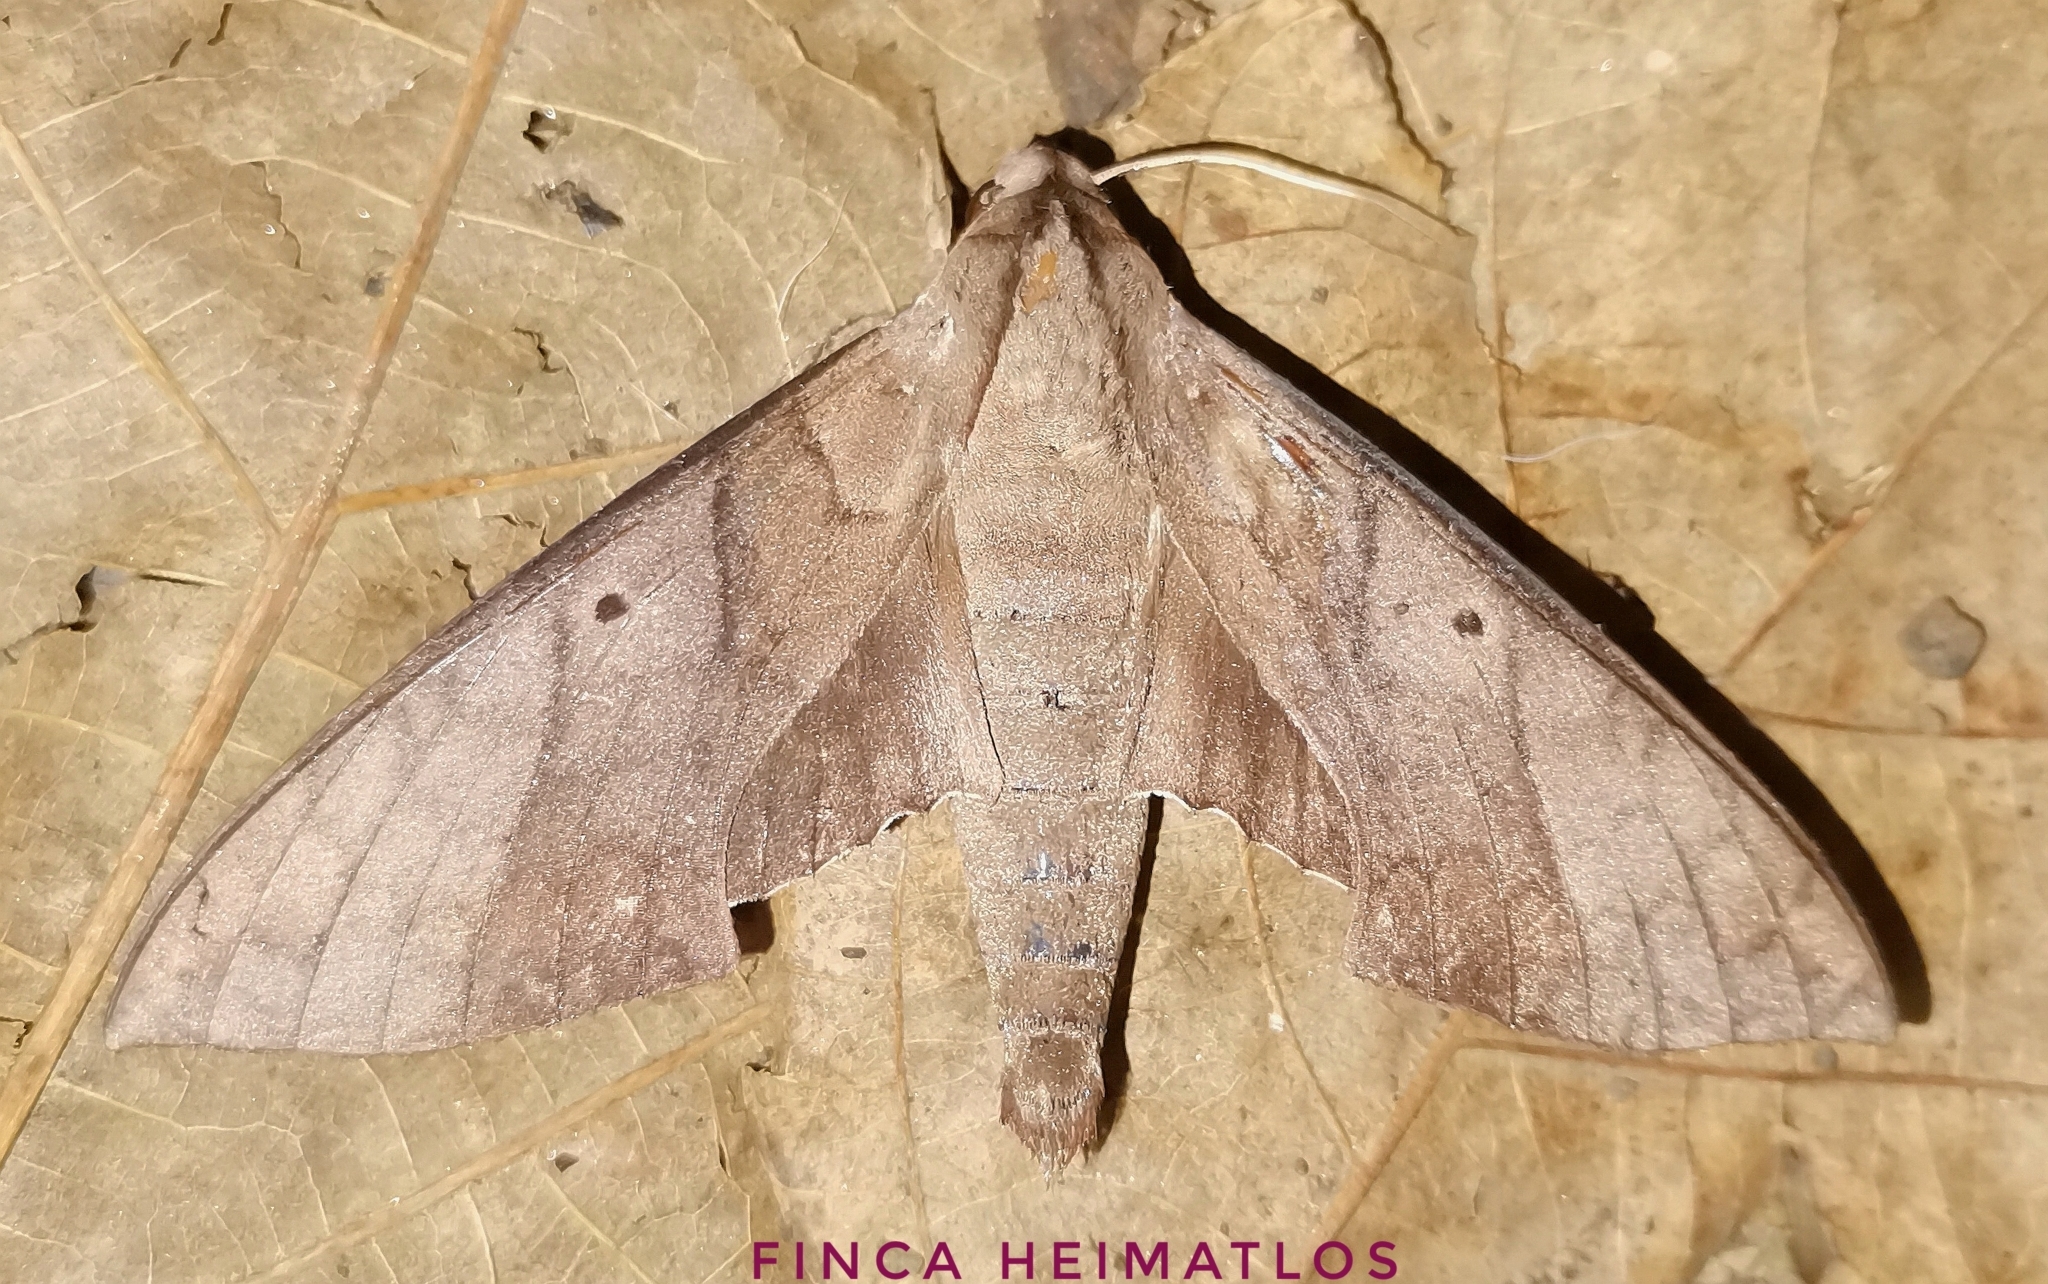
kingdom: Animalia
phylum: Arthropoda
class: Insecta
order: Lepidoptera
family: Sphingidae
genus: Pachylia
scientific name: Pachylia darceta
